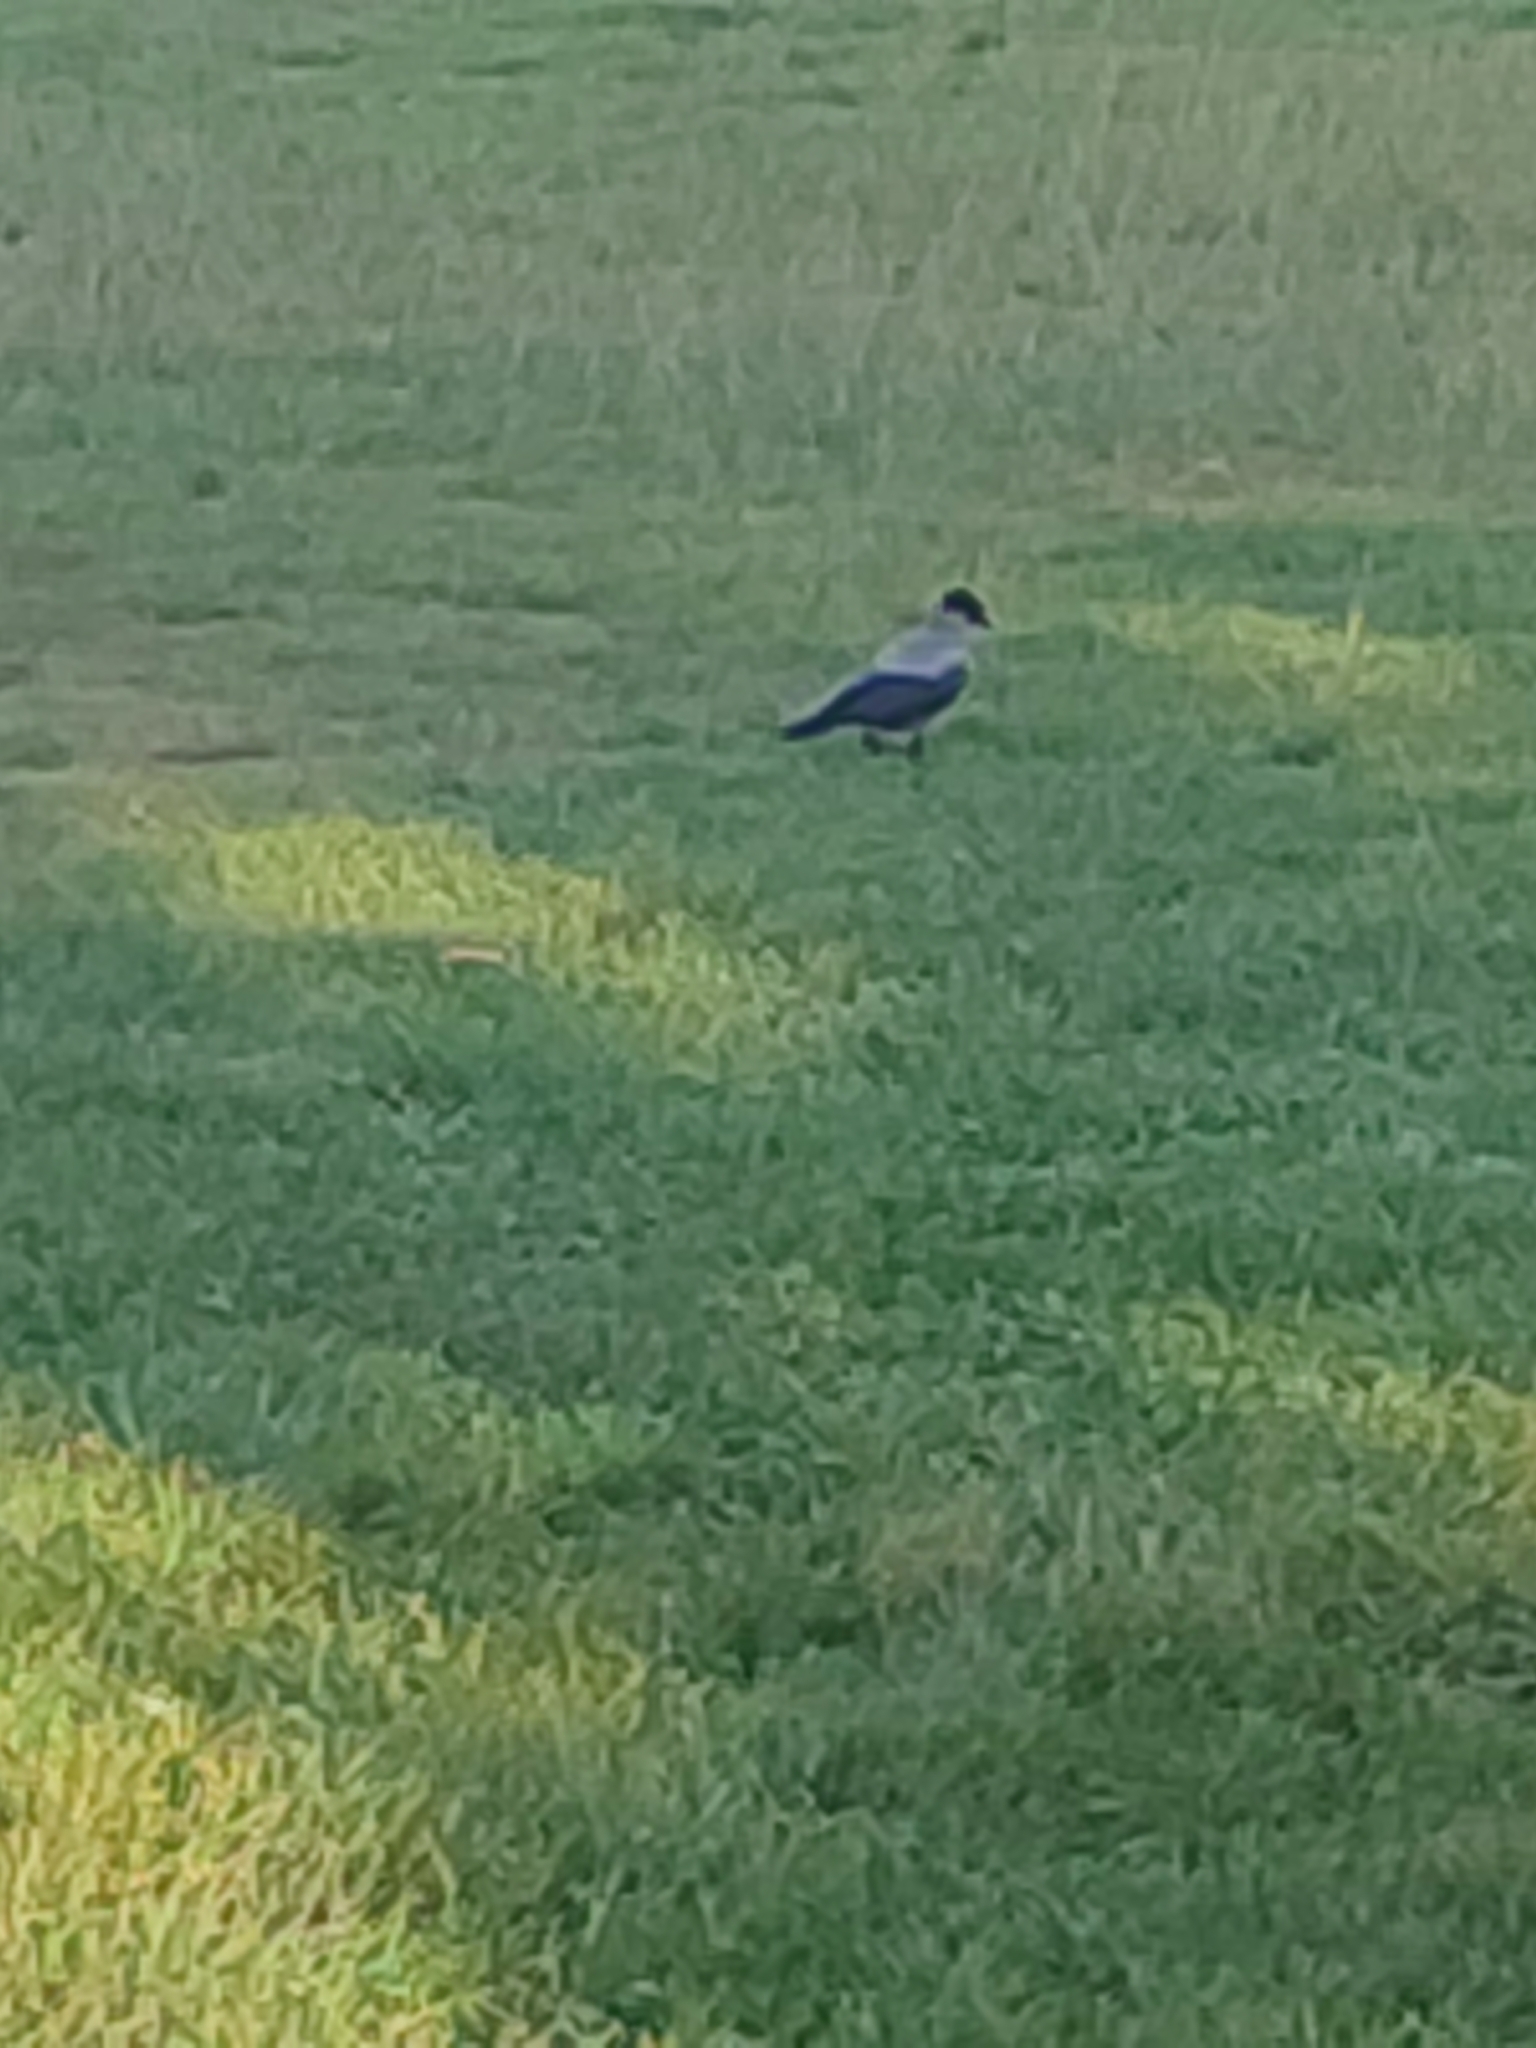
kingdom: Animalia
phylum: Chordata
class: Aves
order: Passeriformes
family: Corvidae
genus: Corvus
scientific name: Corvus cornix
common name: Hooded crow
